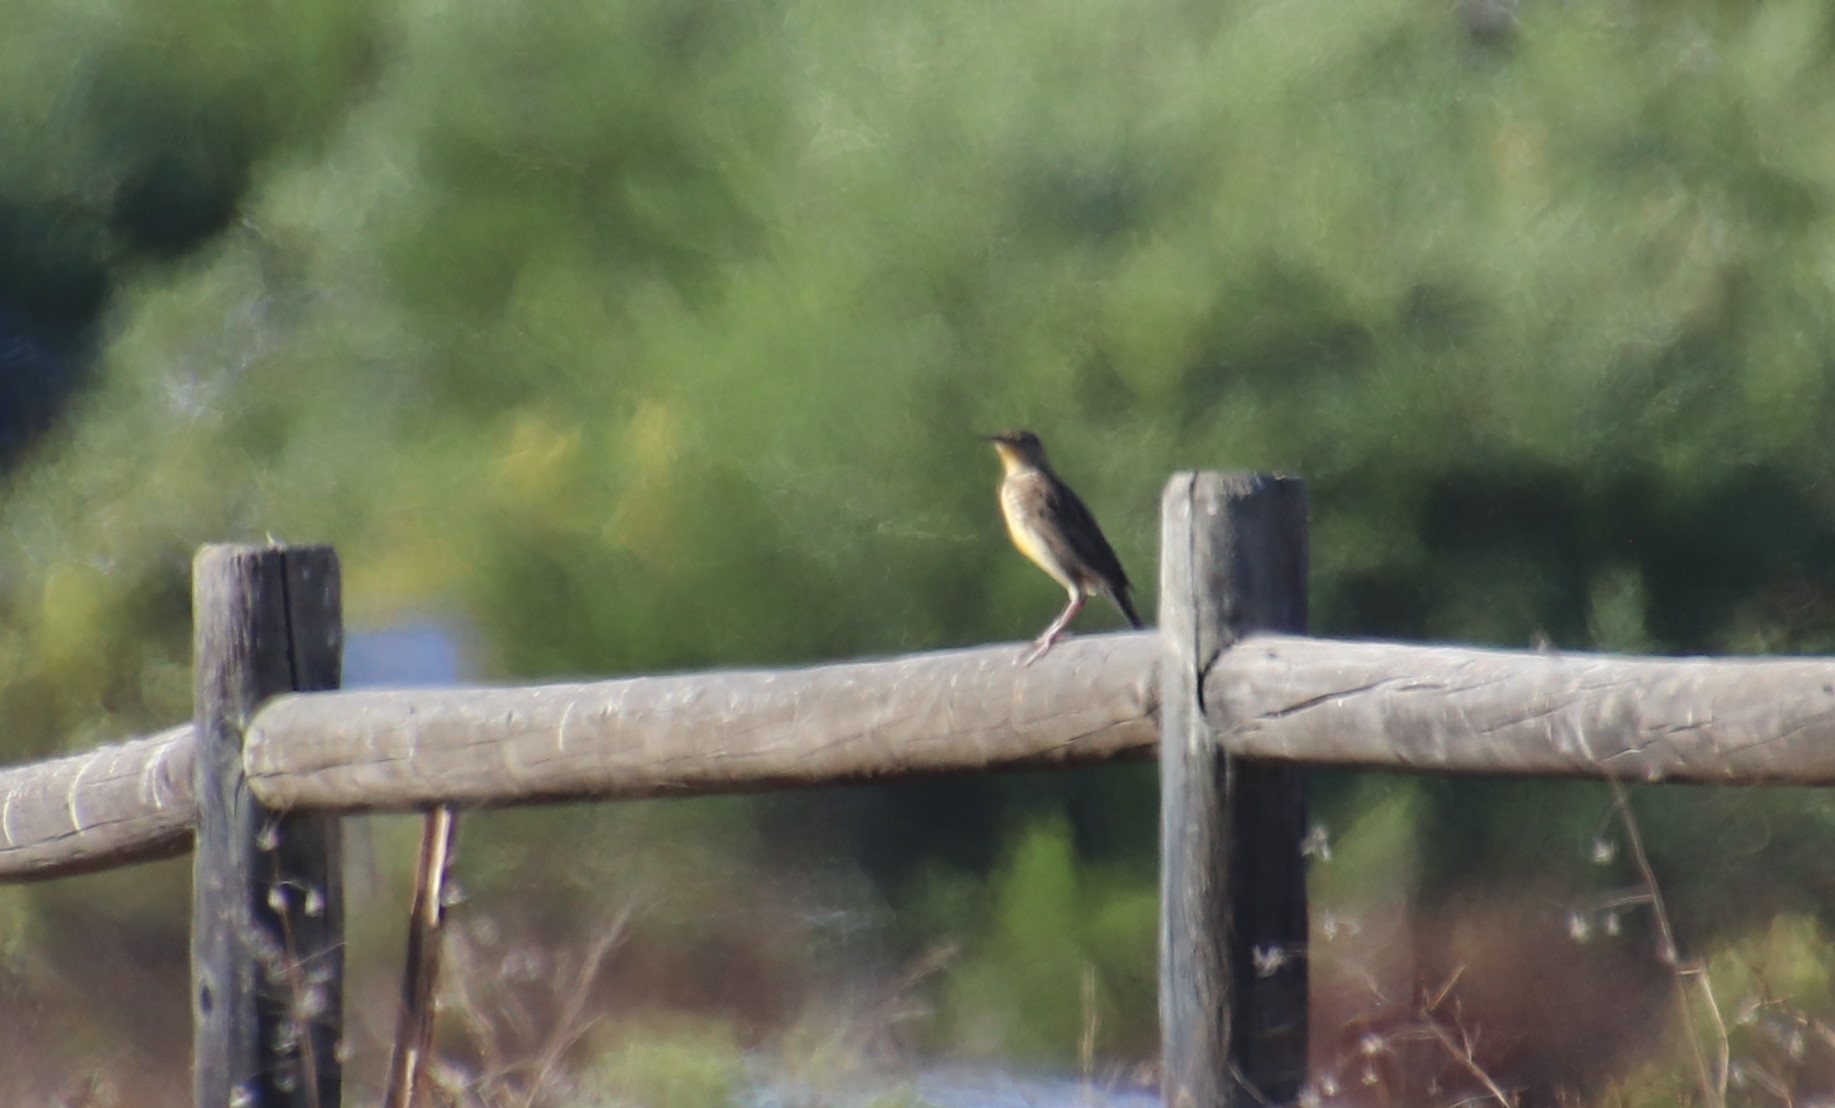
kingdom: Animalia
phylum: Chordata
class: Aves
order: Passeriformes
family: Icteridae
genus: Sturnella
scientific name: Sturnella neglecta
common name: Western meadowlark
